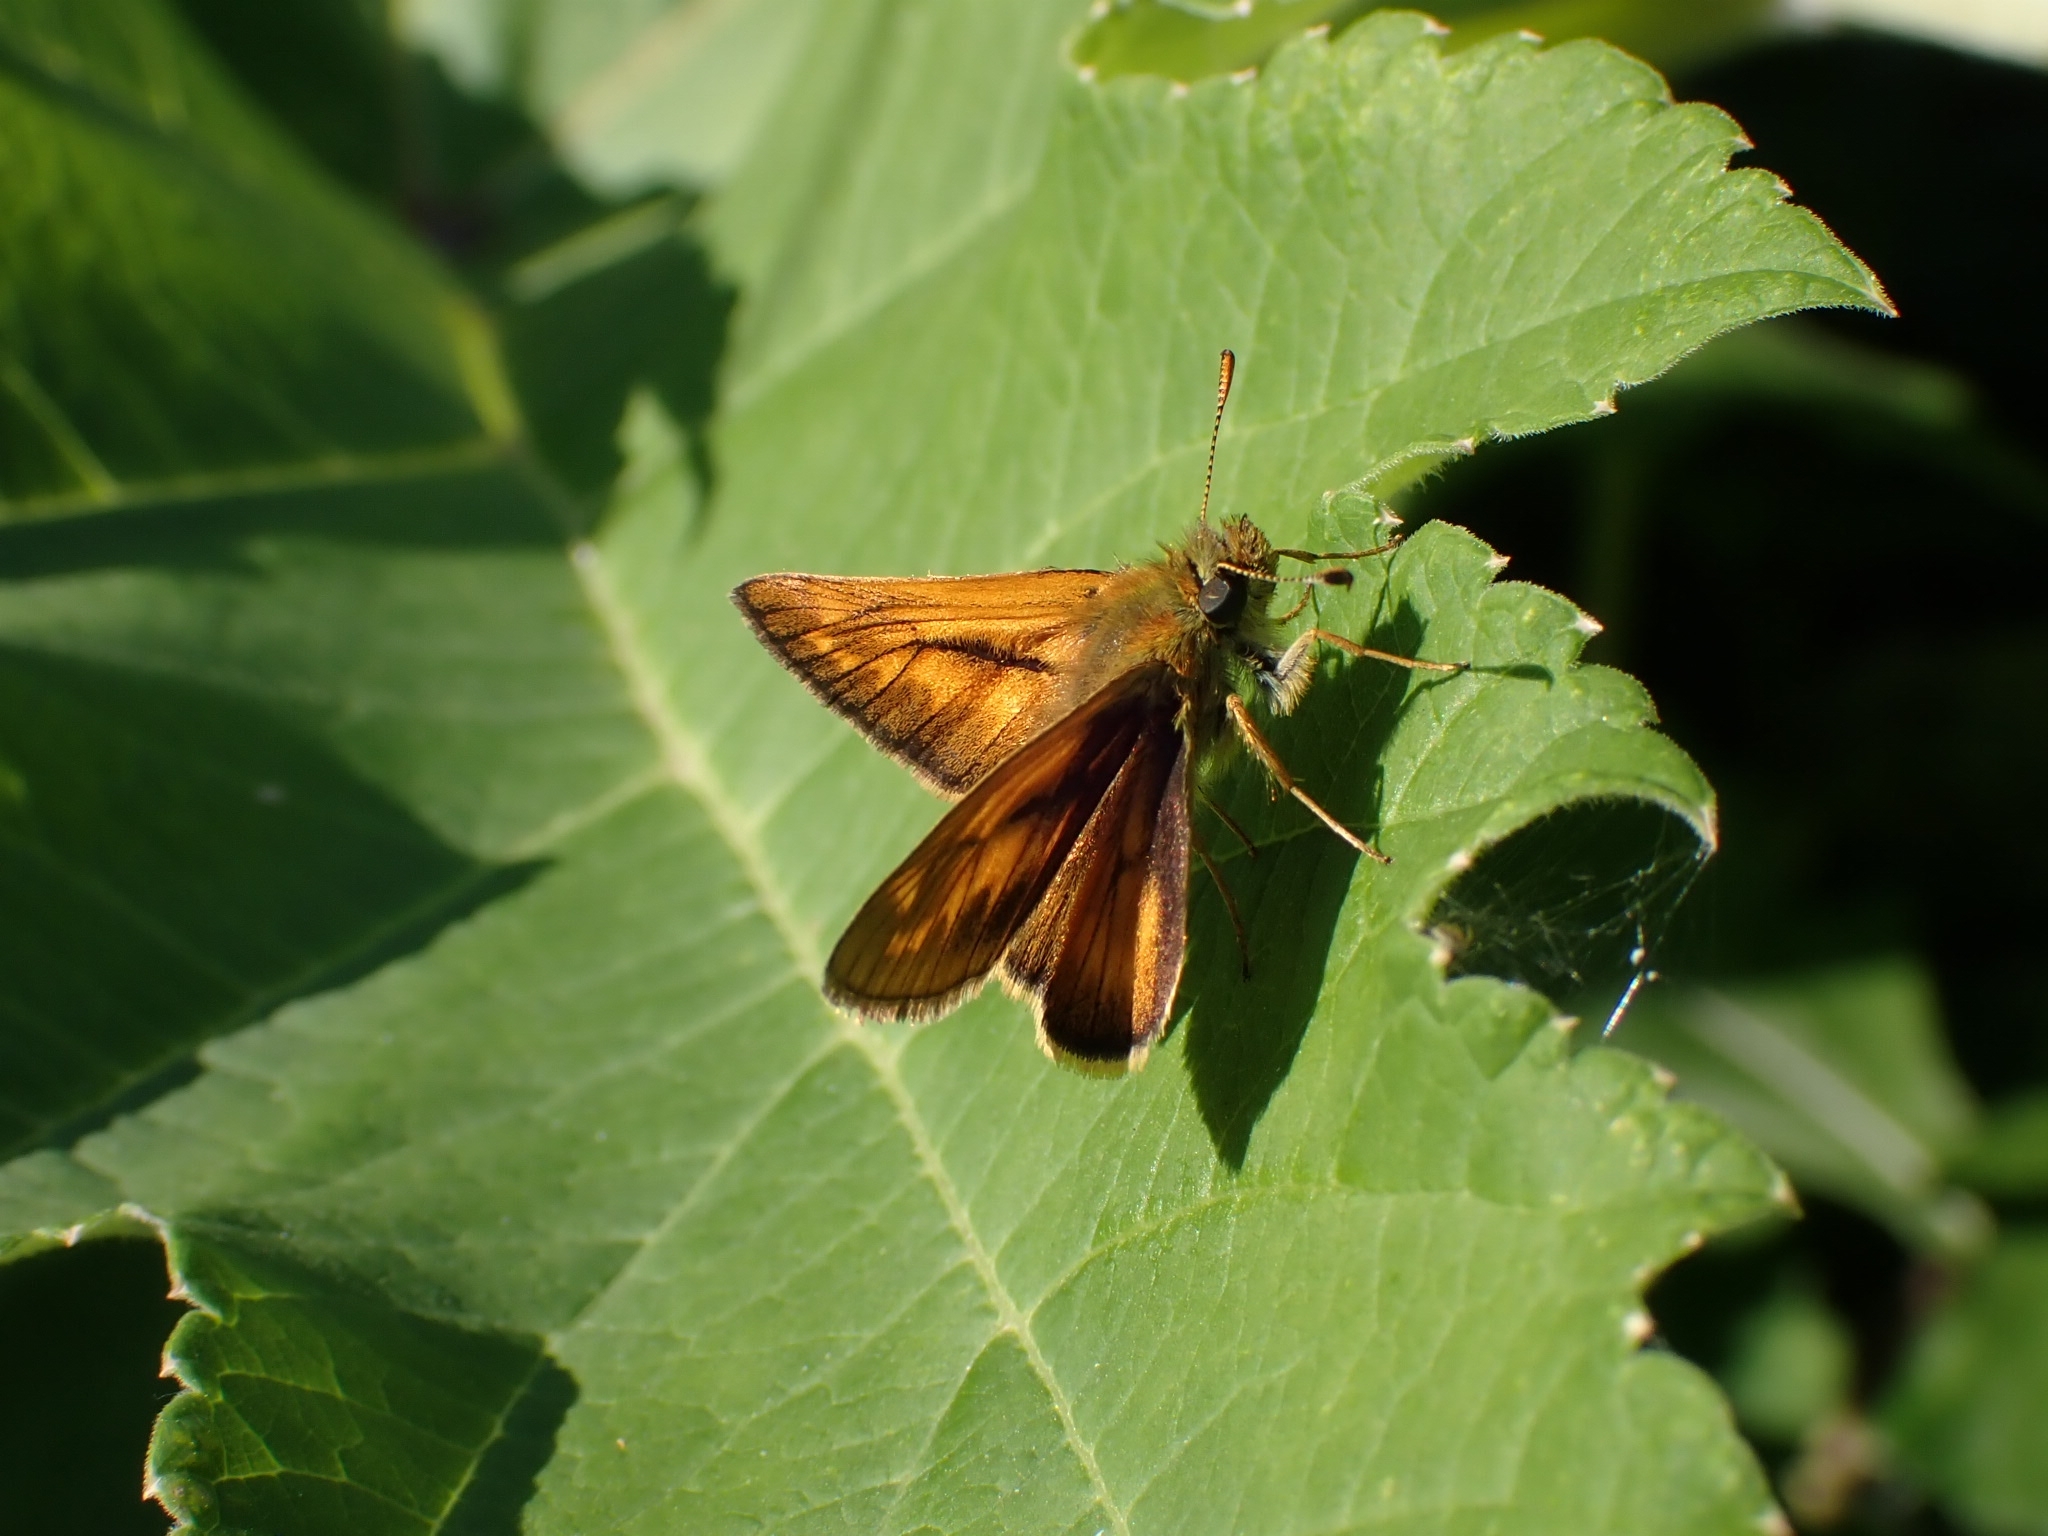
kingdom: Animalia
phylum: Arthropoda
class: Insecta
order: Lepidoptera
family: Hesperiidae
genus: Ochlodes
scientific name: Ochlodes venata
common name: Large skipper
